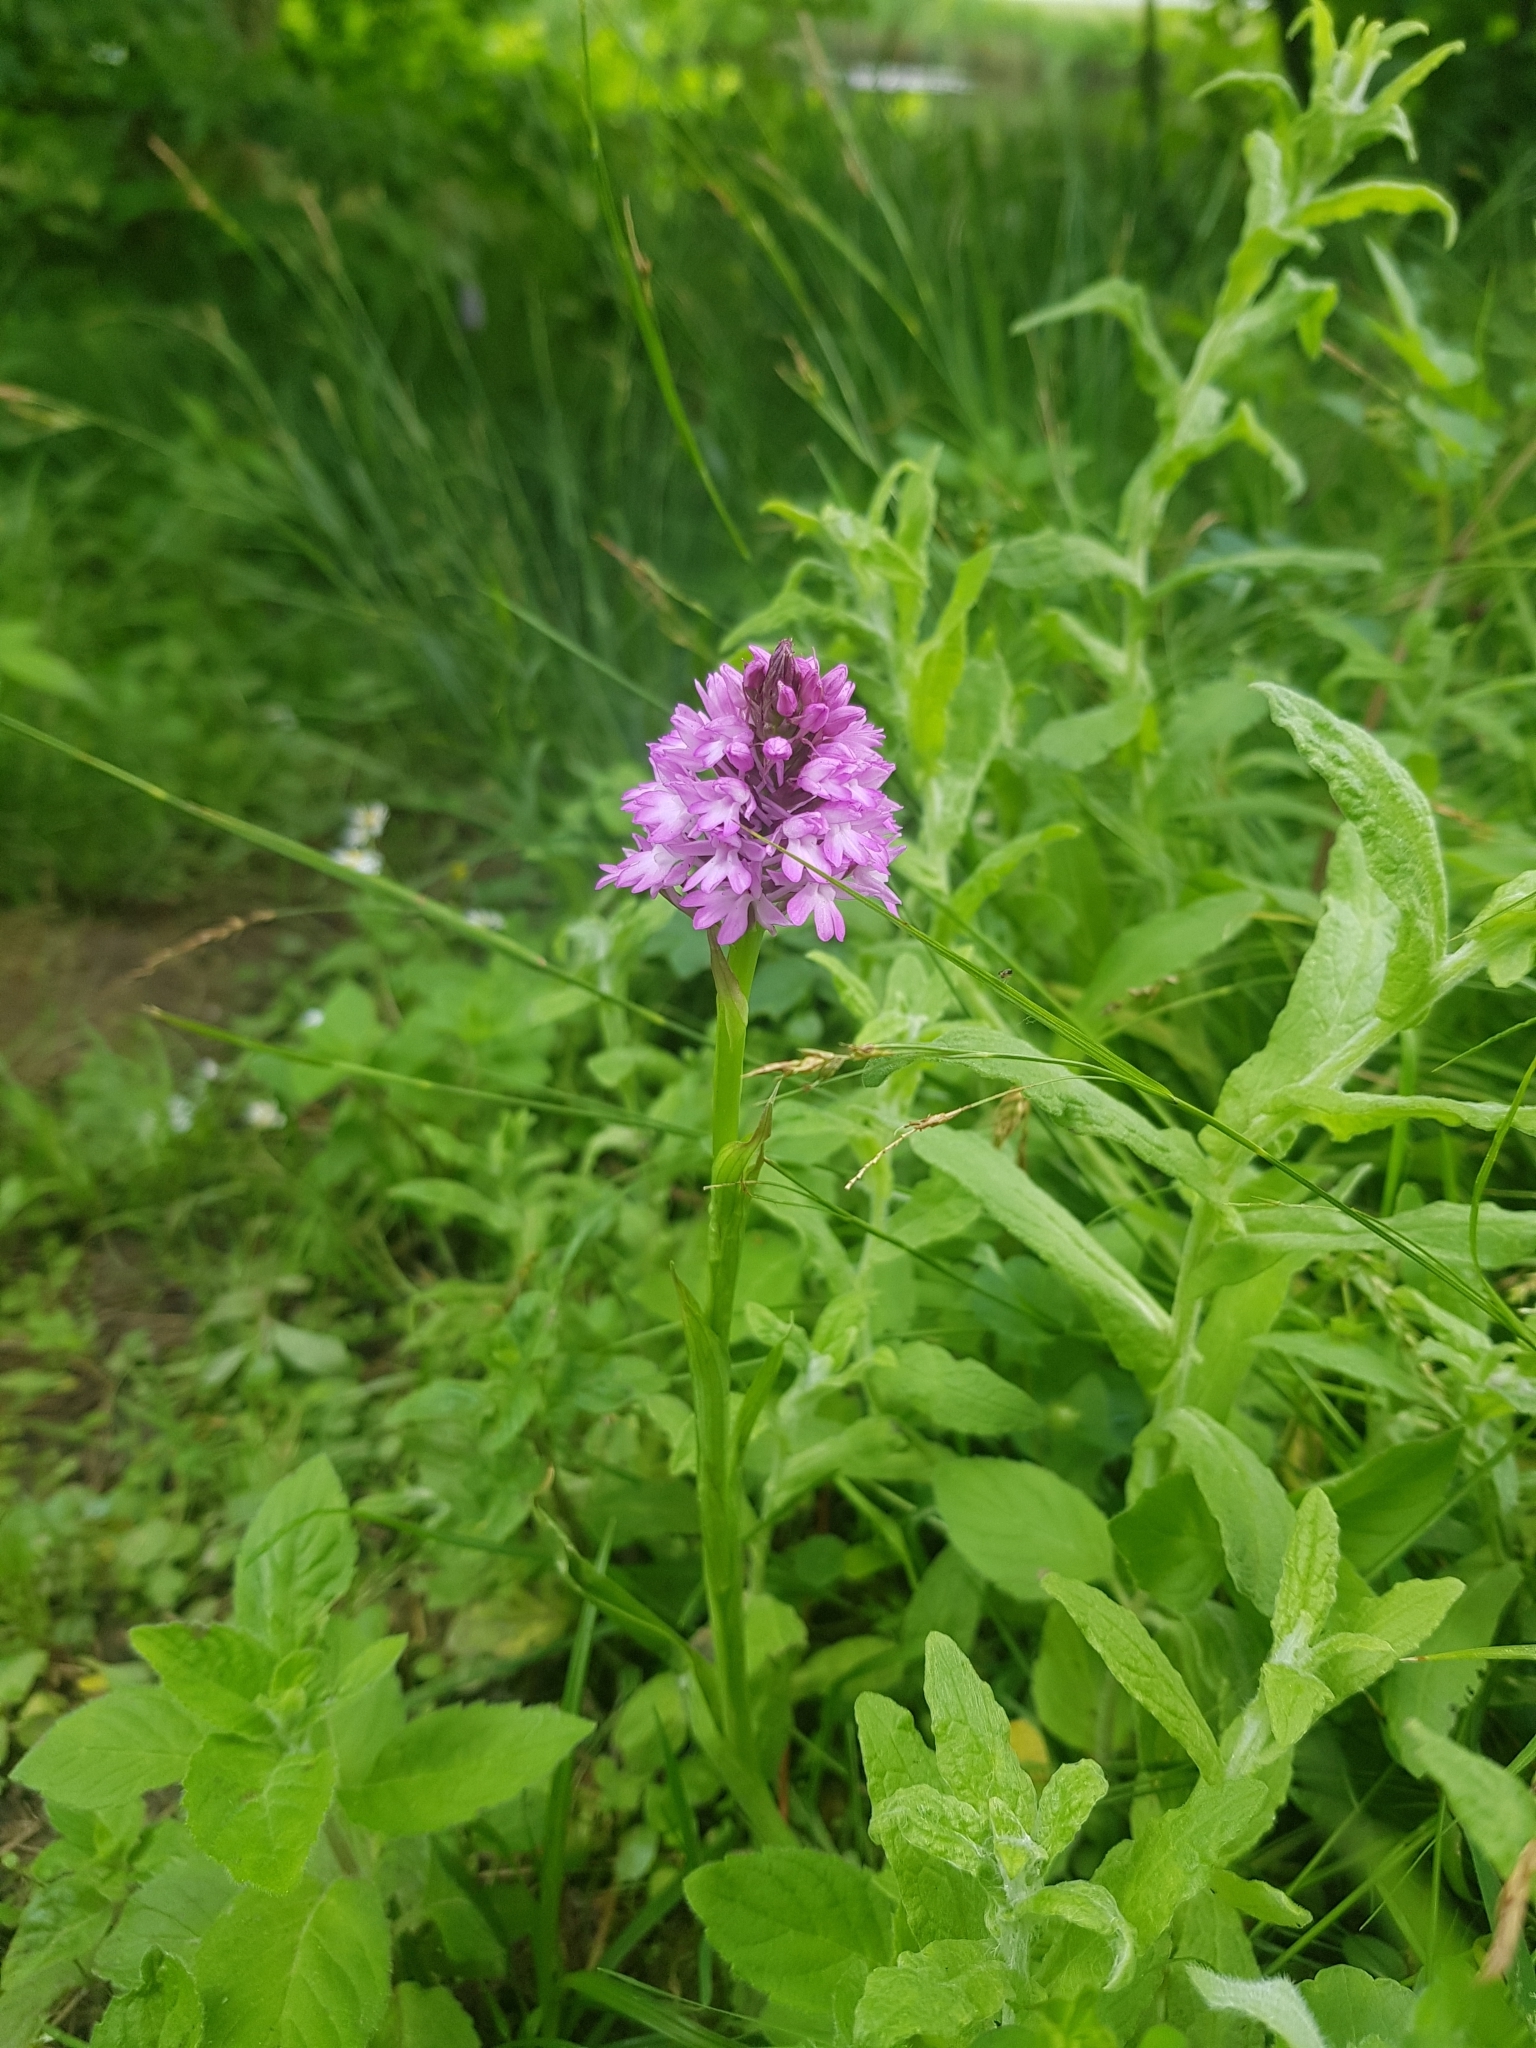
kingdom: Plantae
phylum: Tracheophyta
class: Liliopsida
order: Asparagales
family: Orchidaceae
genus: Anacamptis
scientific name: Anacamptis pyramidalis
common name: Pyramidal orchid
